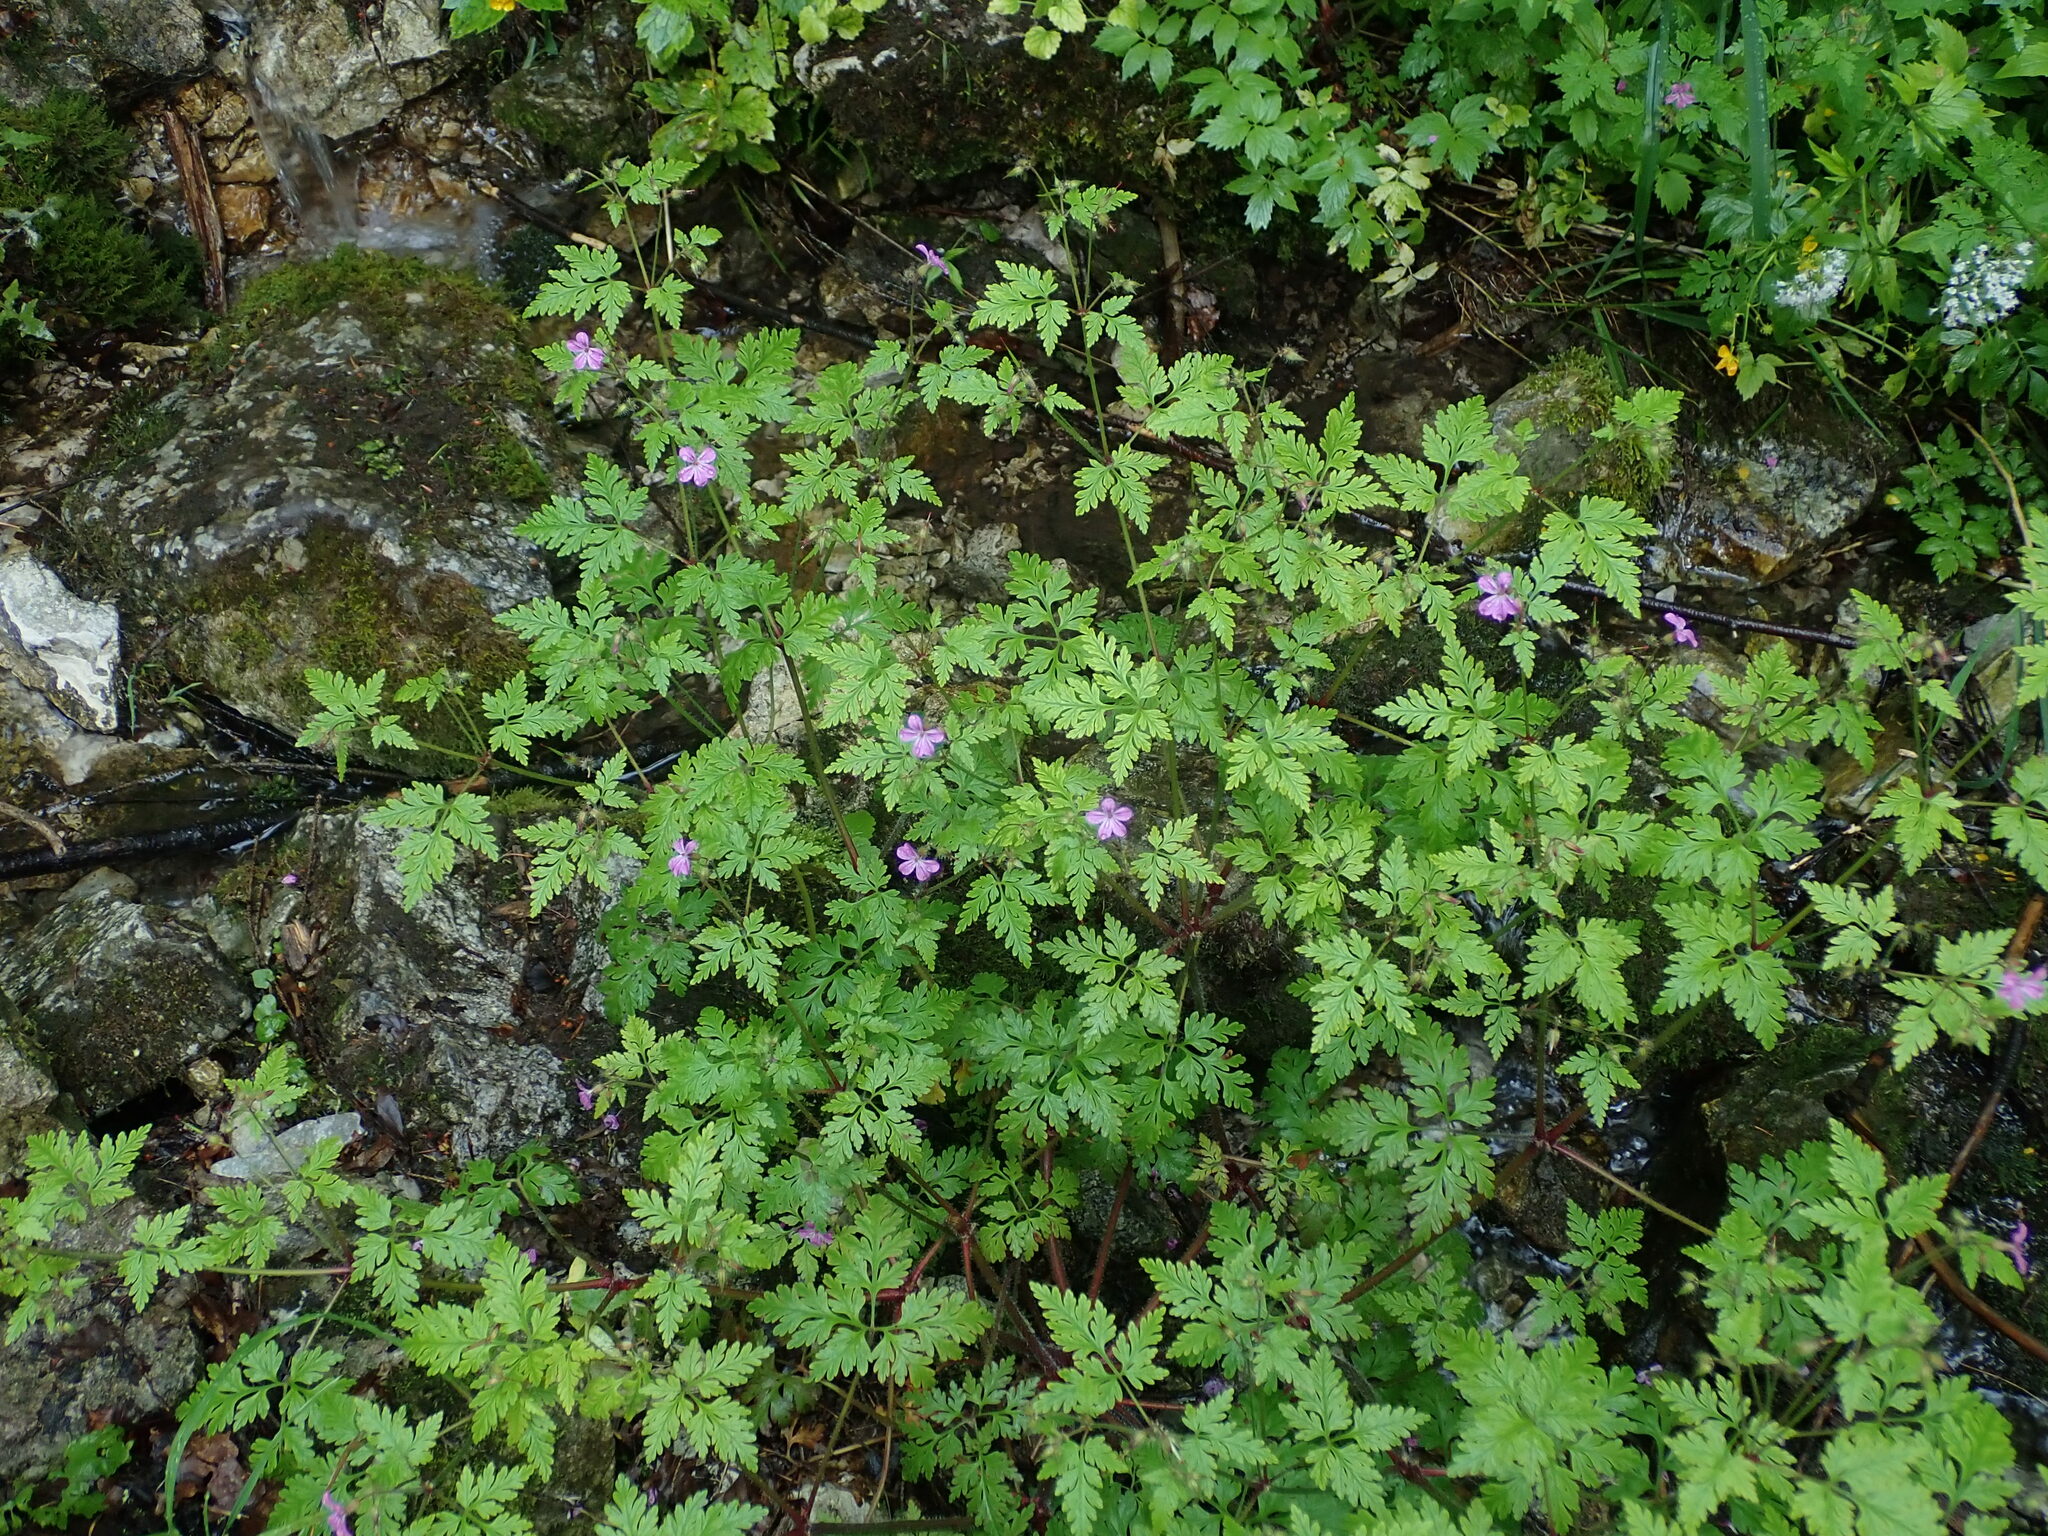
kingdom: Plantae
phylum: Tracheophyta
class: Magnoliopsida
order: Geraniales
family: Geraniaceae
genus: Geranium
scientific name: Geranium robertianum
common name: Herb-robert
